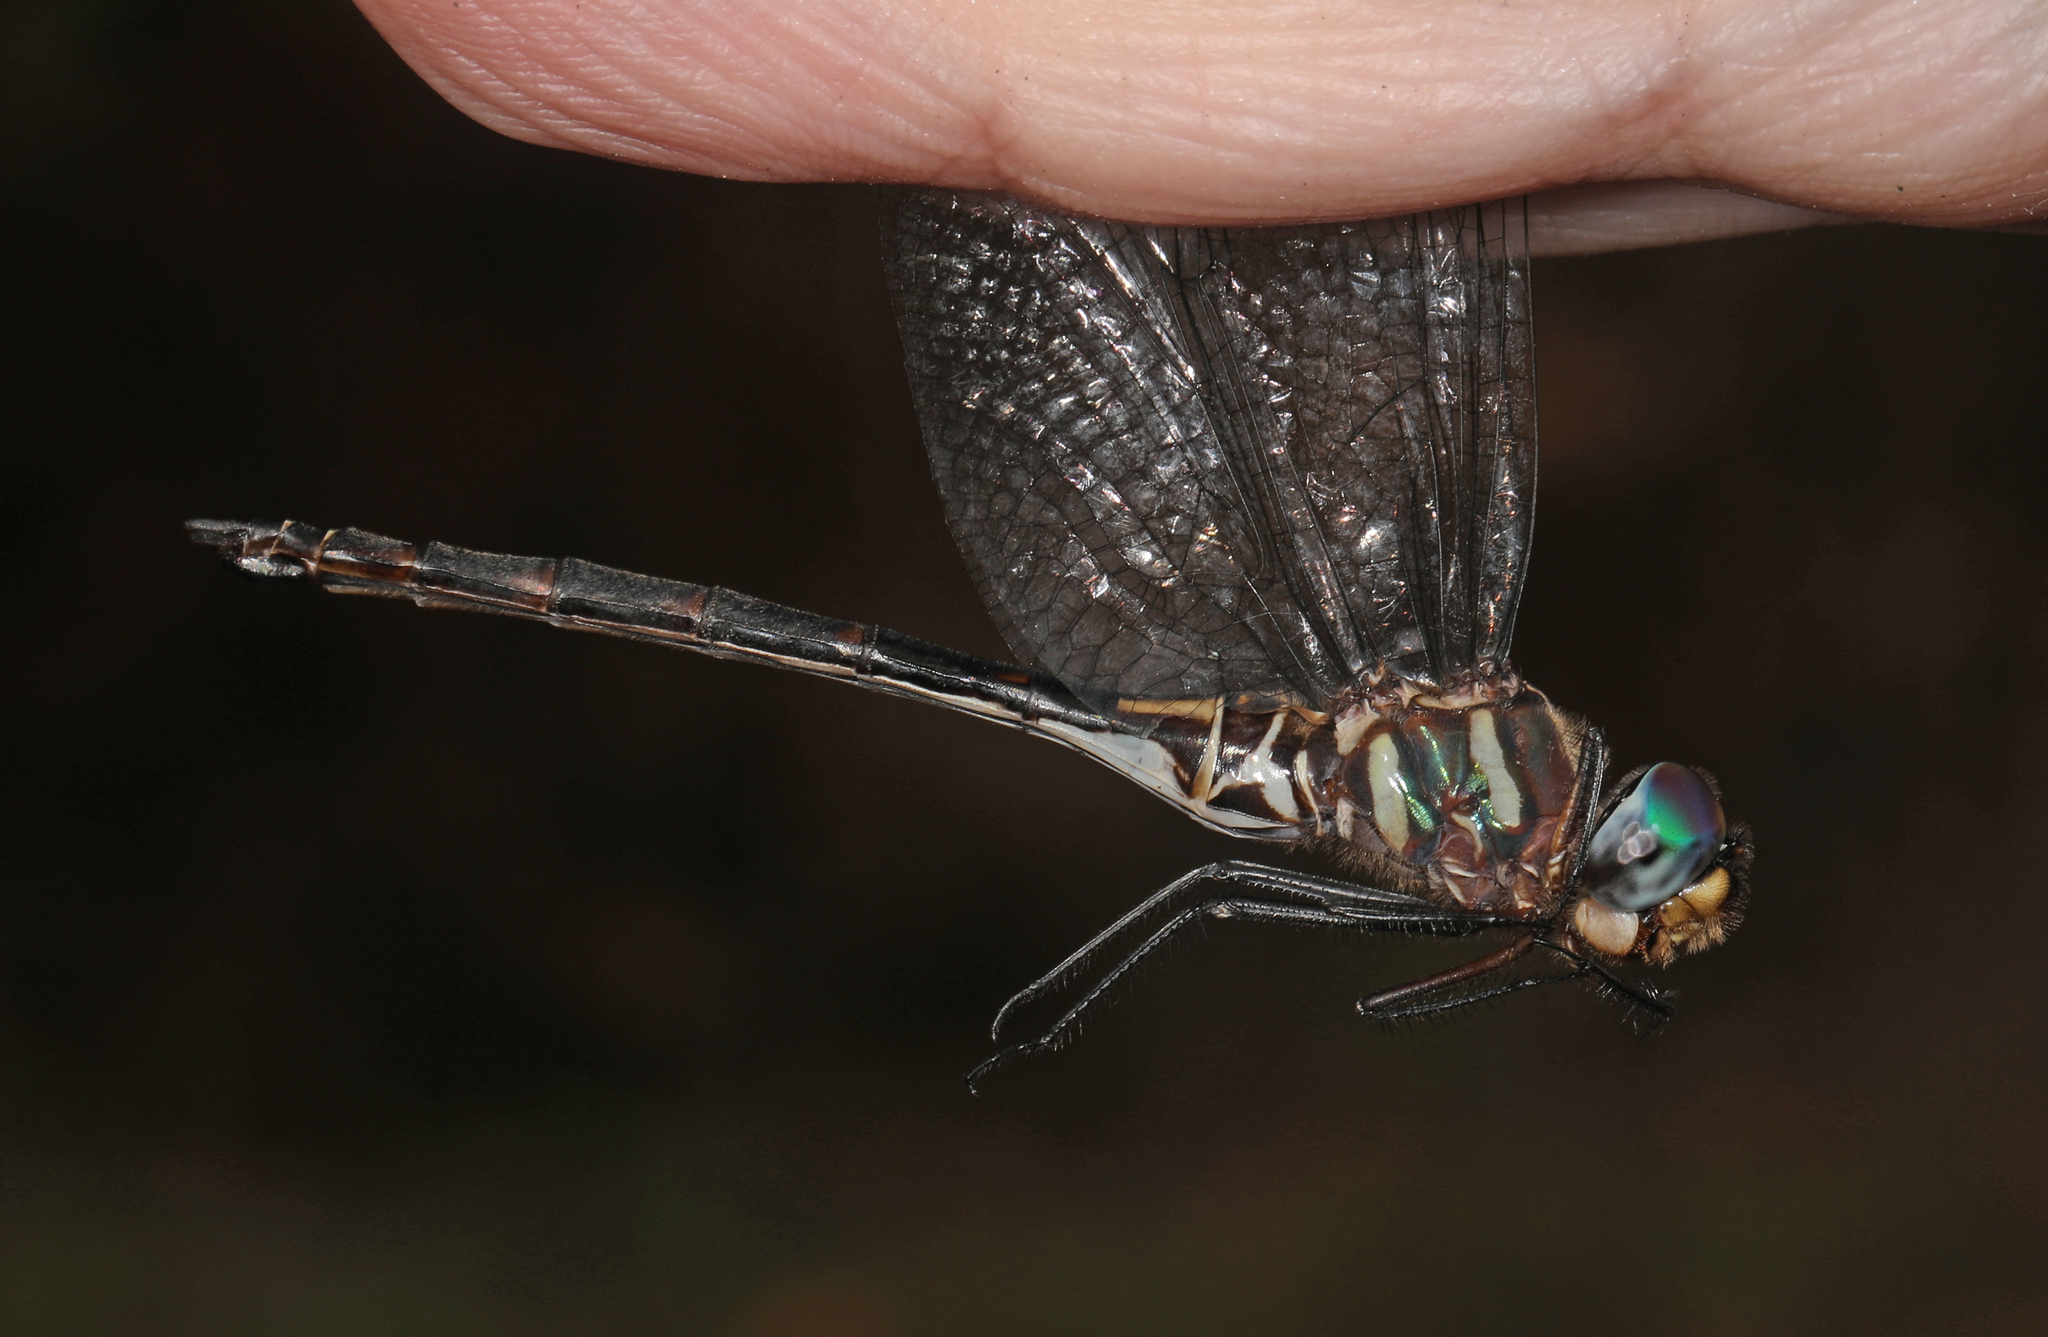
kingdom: Animalia
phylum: Arthropoda
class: Insecta
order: Odonata
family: Corduliidae
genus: Somatochlora
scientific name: Somatochlora margarita
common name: Texas emerald
